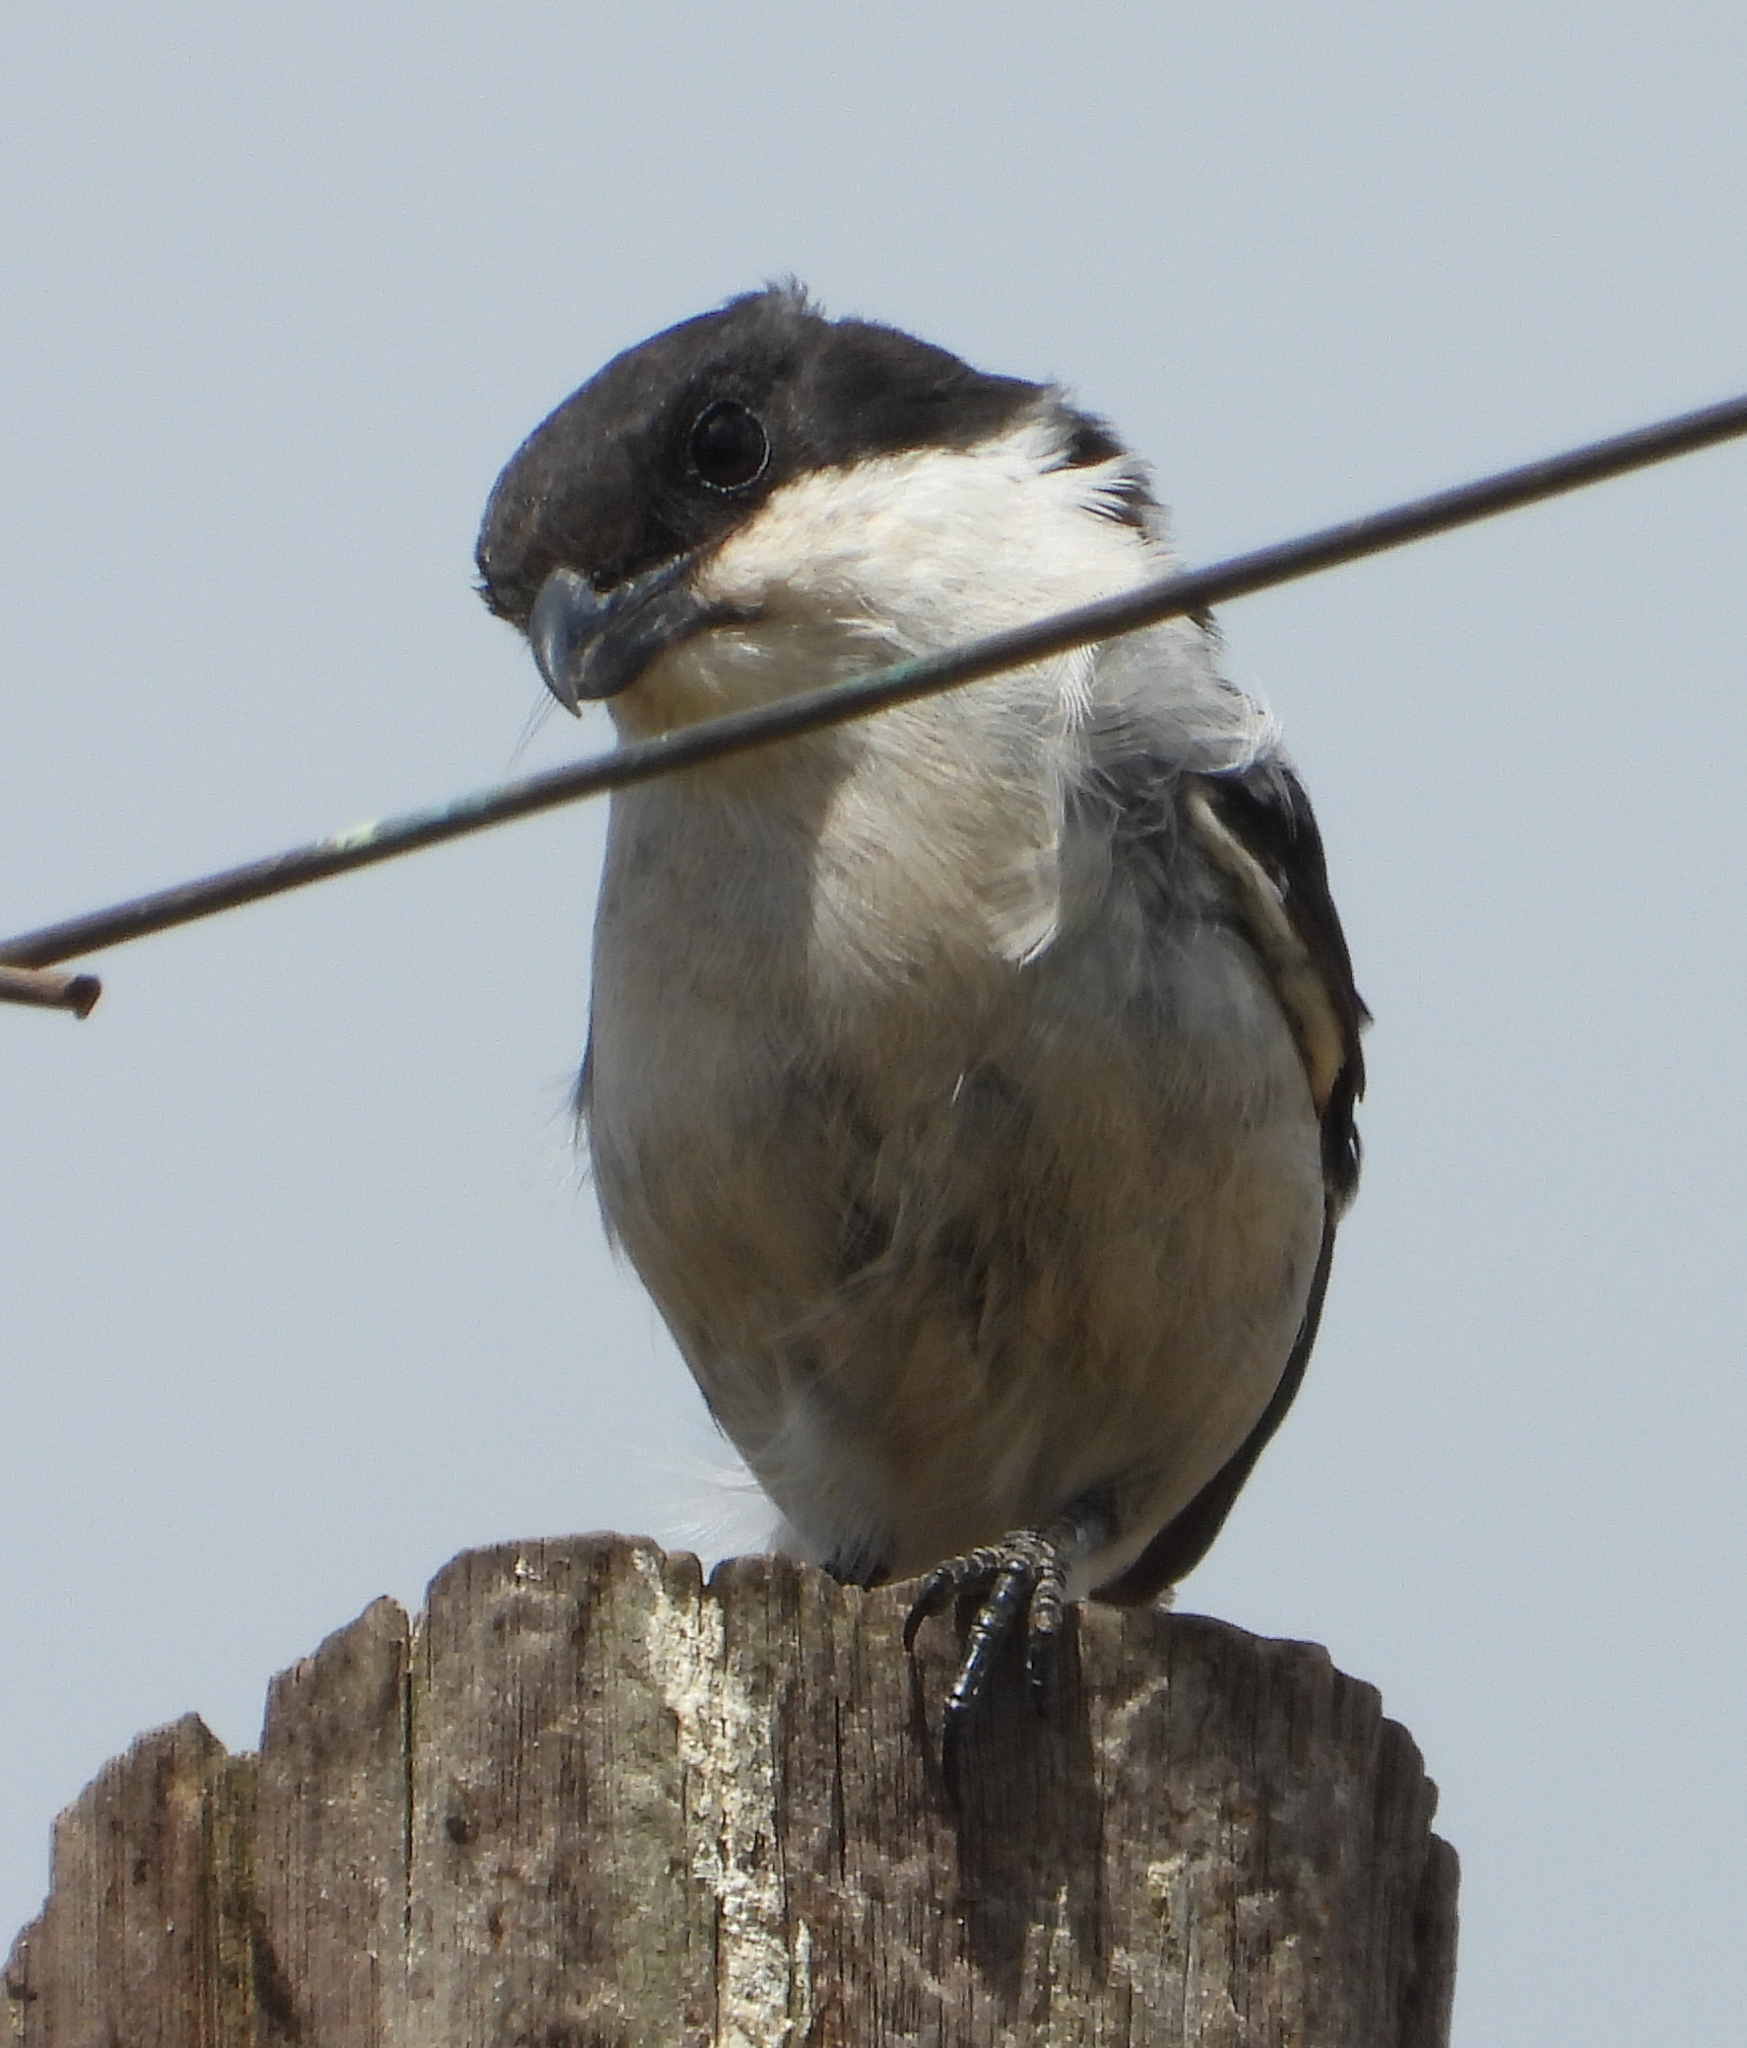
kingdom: Animalia
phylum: Chordata
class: Aves
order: Passeriformes
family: Laniidae
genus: Lanius
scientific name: Lanius collaris
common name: Southern fiscal
